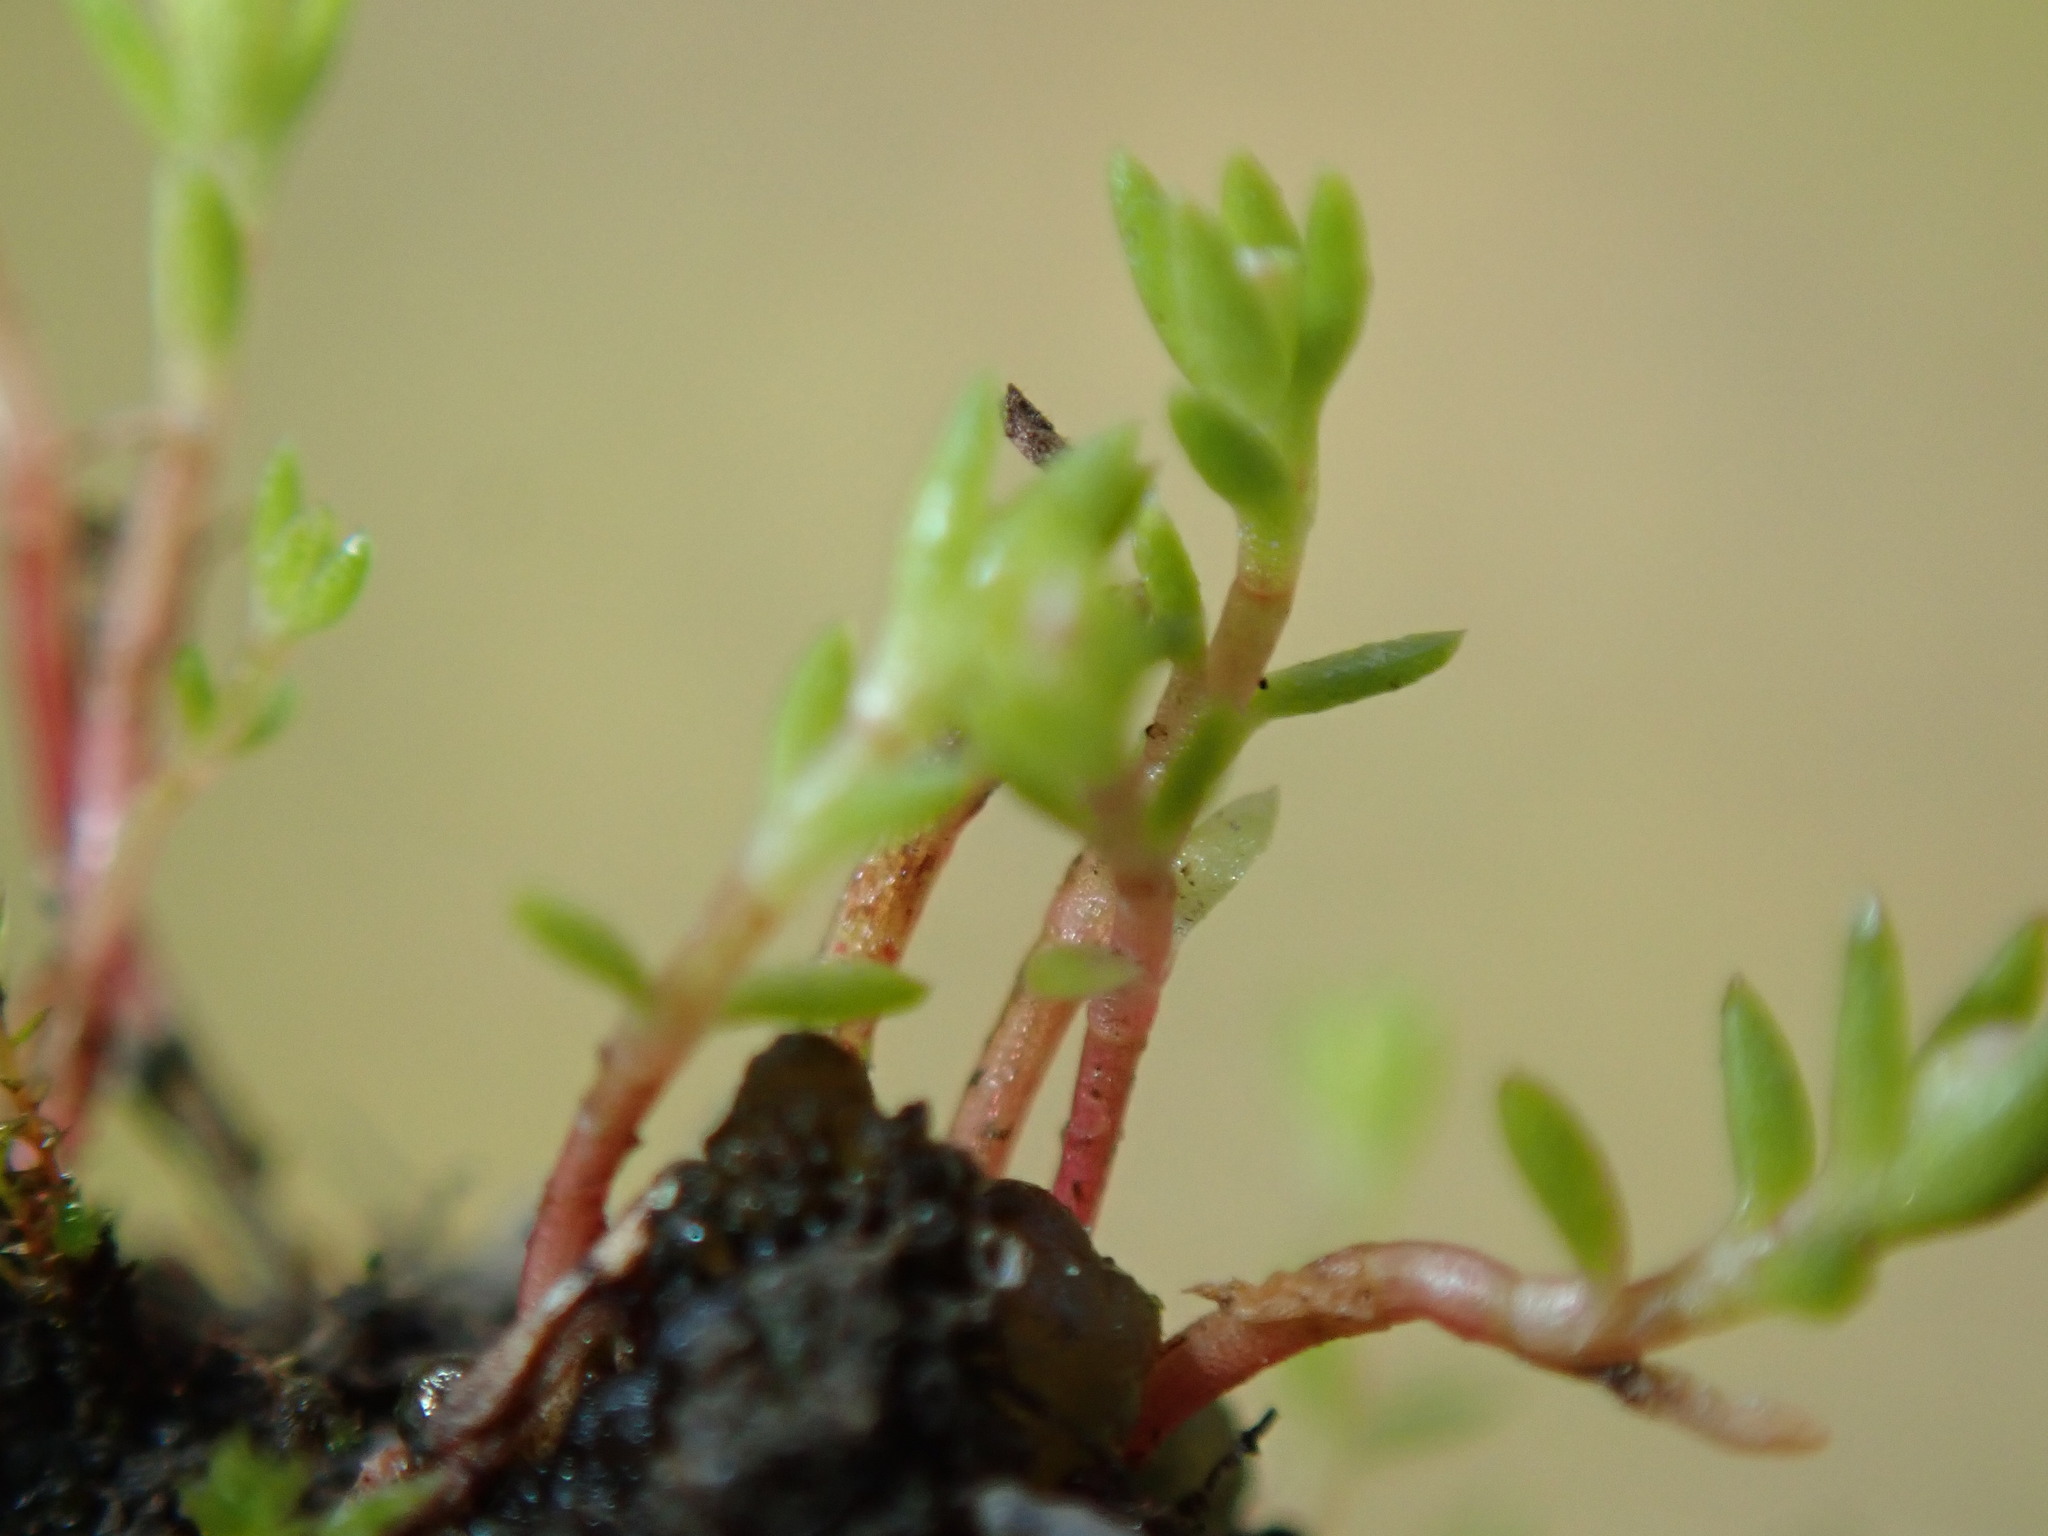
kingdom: Plantae
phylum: Tracheophyta
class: Magnoliopsida
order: Saxifragales
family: Crassulaceae
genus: Crassula
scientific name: Crassula aquatica
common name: Pigmyweed
